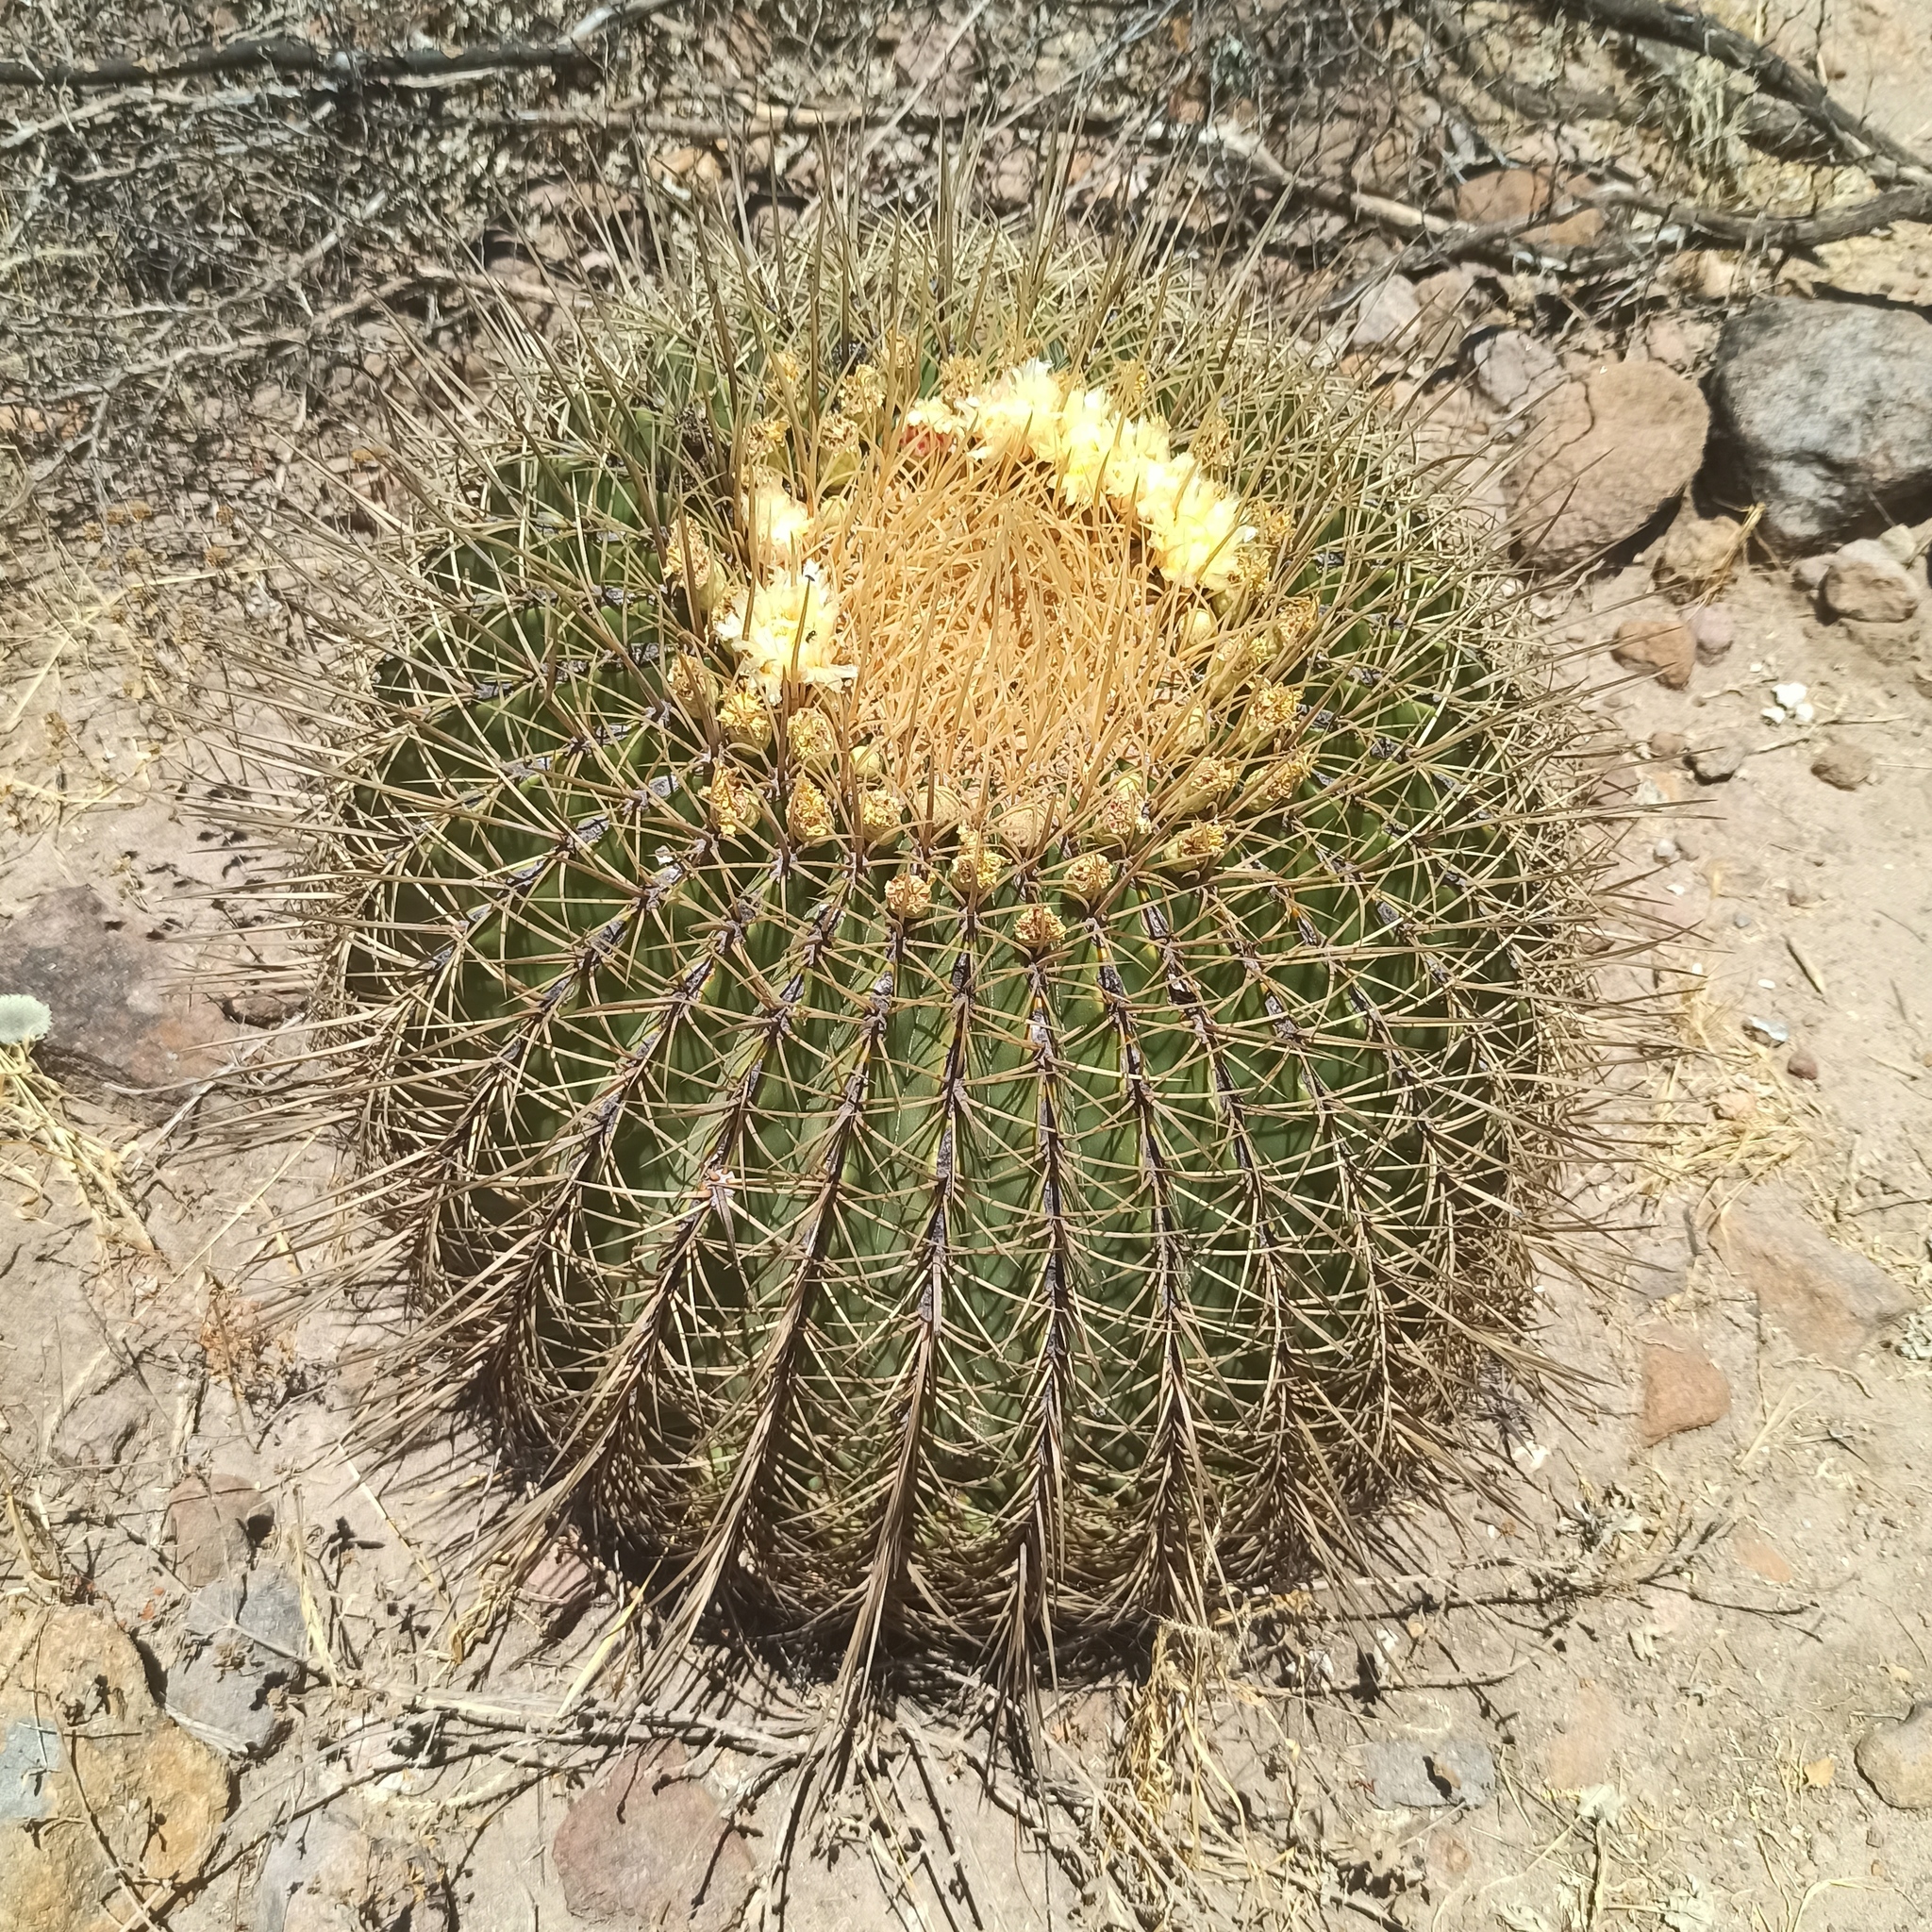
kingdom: Plantae
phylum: Tracheophyta
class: Magnoliopsida
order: Caryophyllales
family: Cactaceae
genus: Bisnaga
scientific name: Bisnaga histrix
